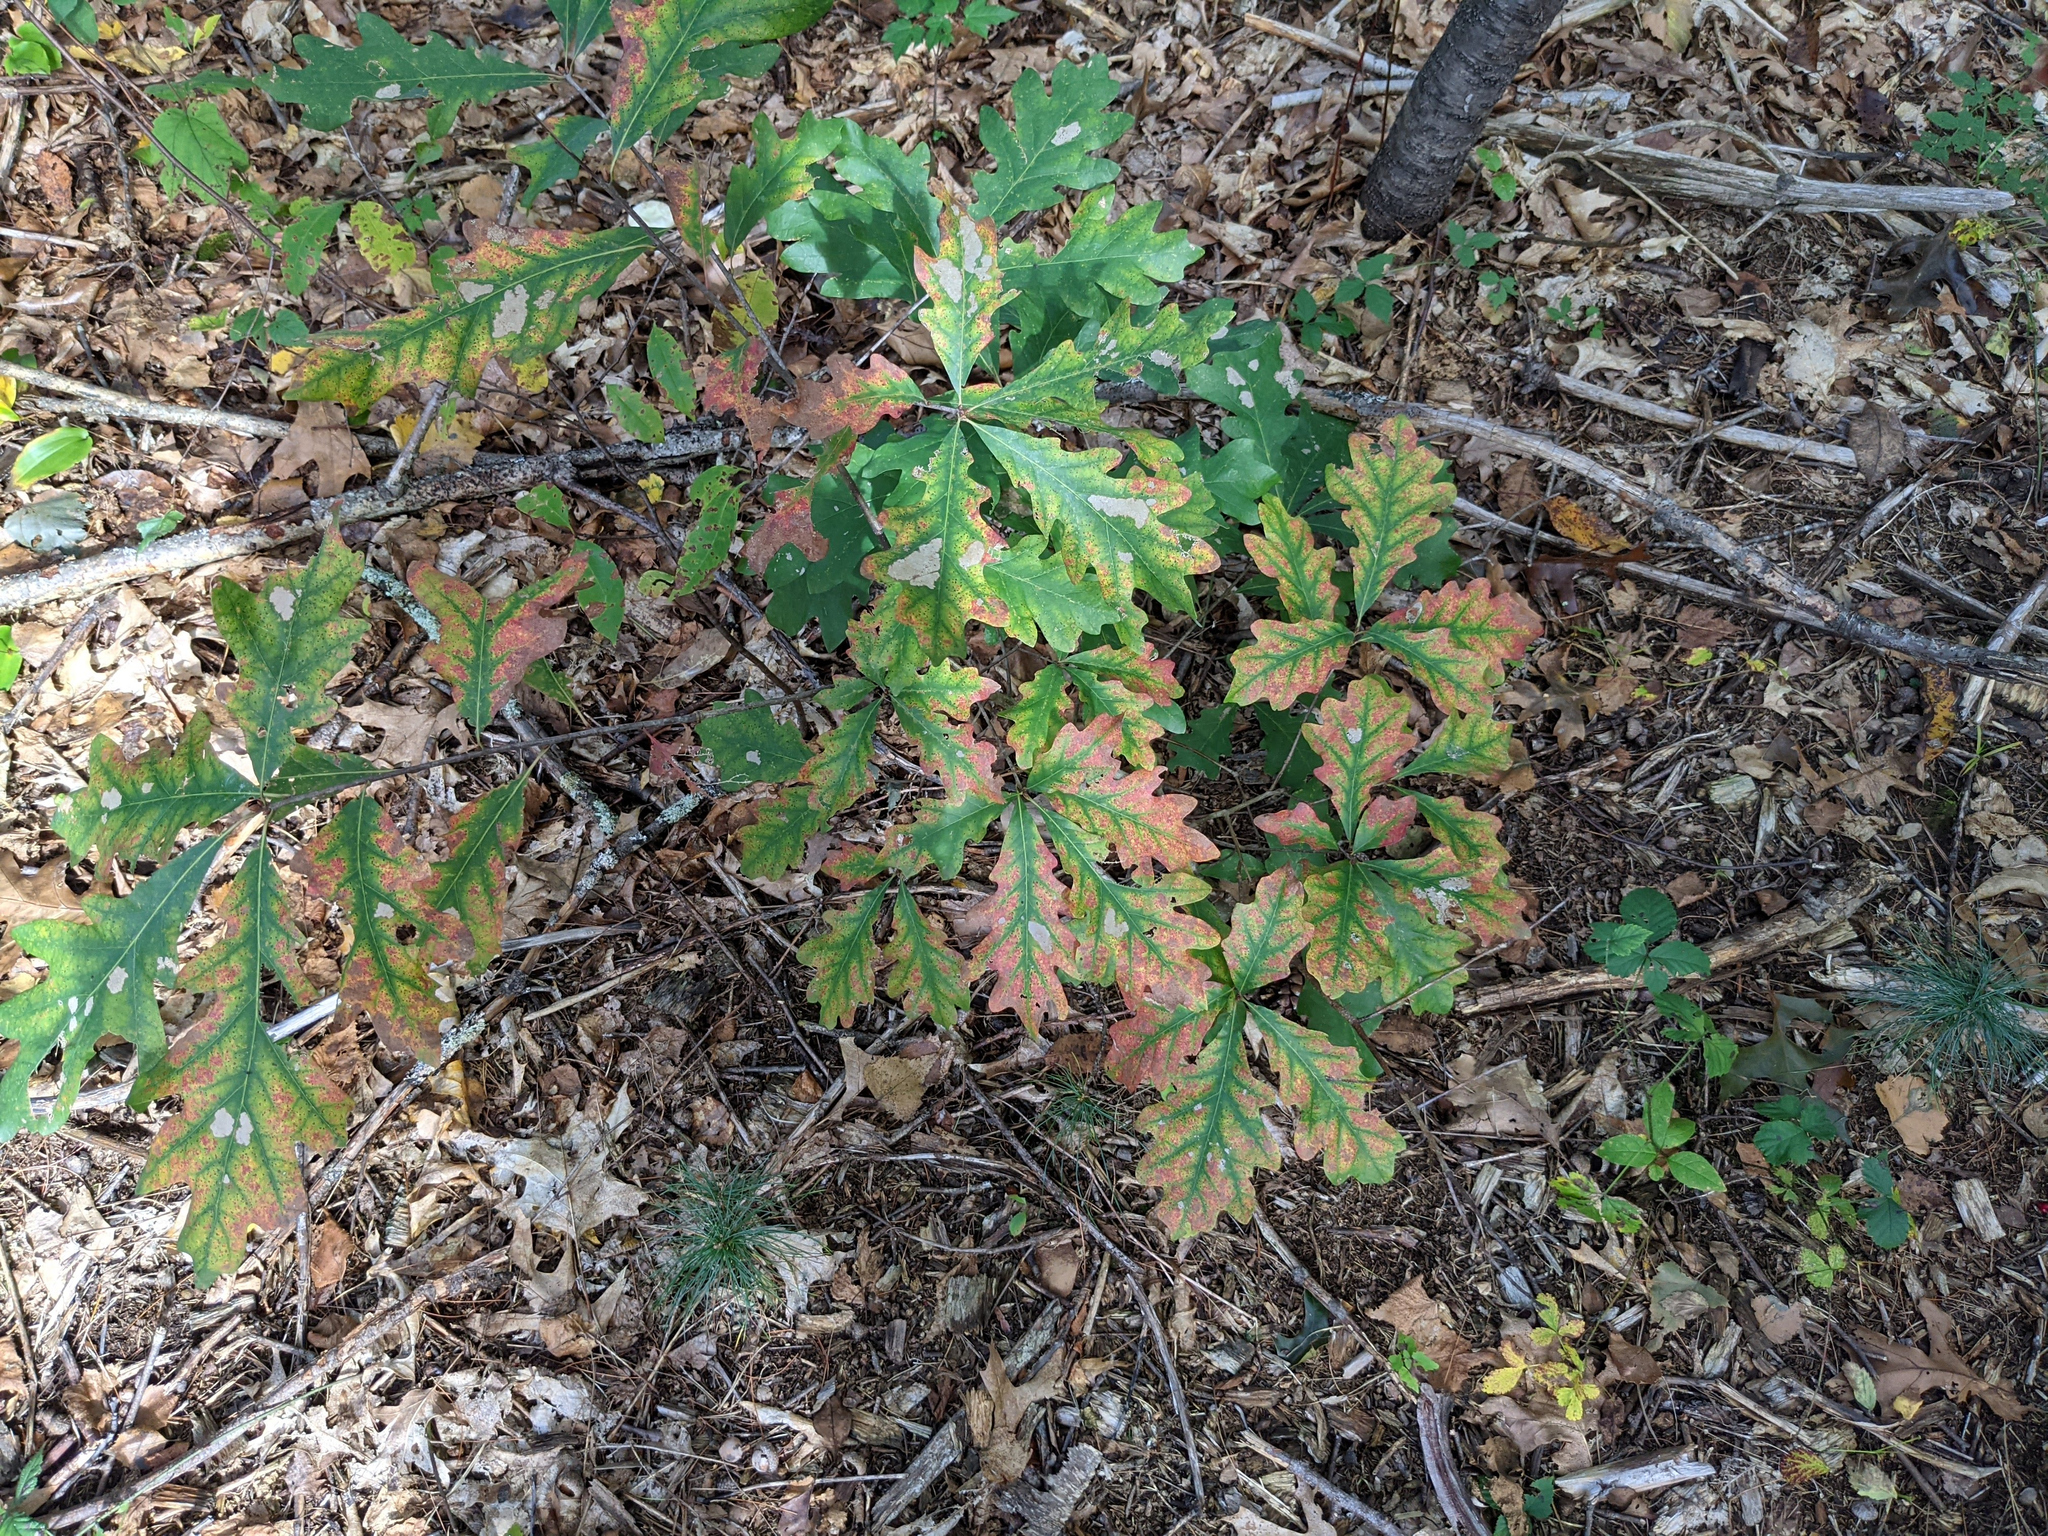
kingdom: Plantae
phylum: Tracheophyta
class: Magnoliopsida
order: Fagales
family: Fagaceae
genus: Quercus
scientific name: Quercus alba
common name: White oak
